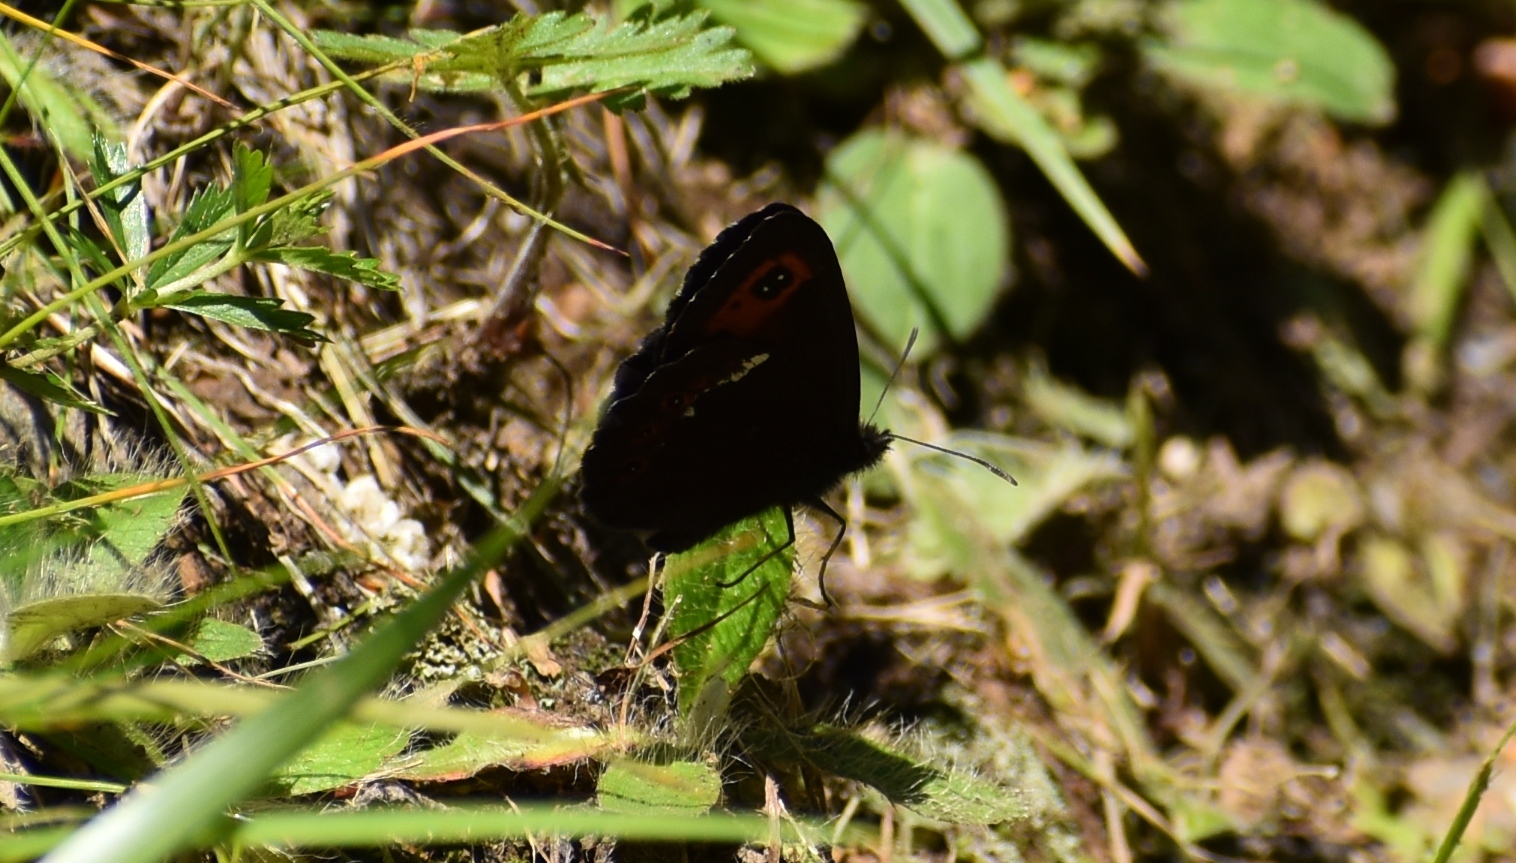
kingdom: Animalia
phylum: Arthropoda
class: Insecta
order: Lepidoptera
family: Nymphalidae
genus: Erebia
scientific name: Erebia ligea
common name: Arran brown
